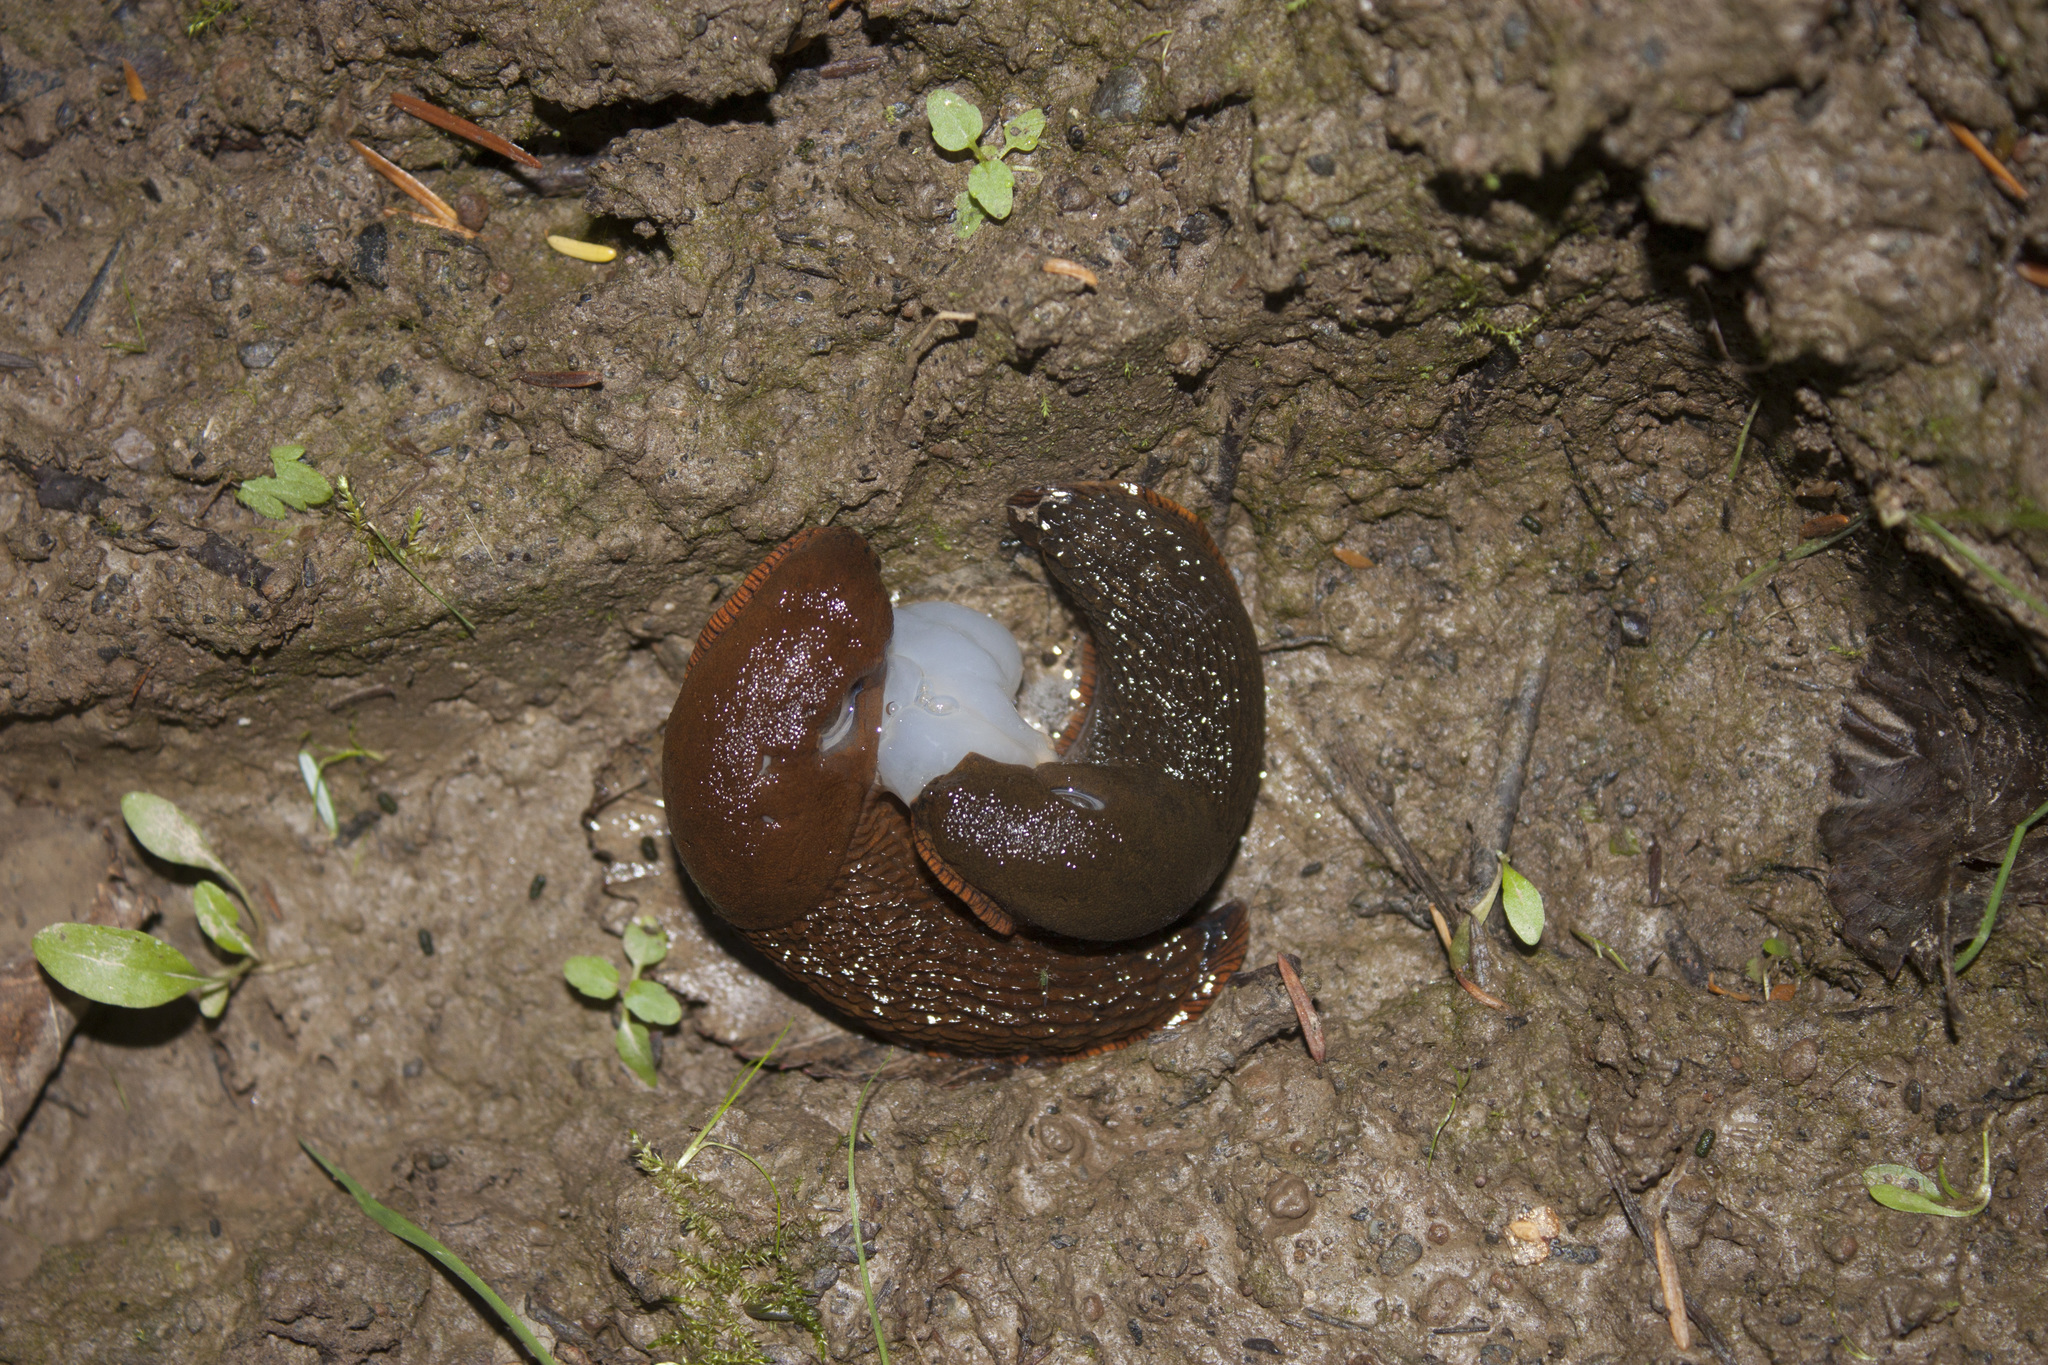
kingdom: Animalia
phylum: Mollusca
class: Gastropoda
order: Stylommatophora
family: Arionidae
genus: Arion
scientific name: Arion
